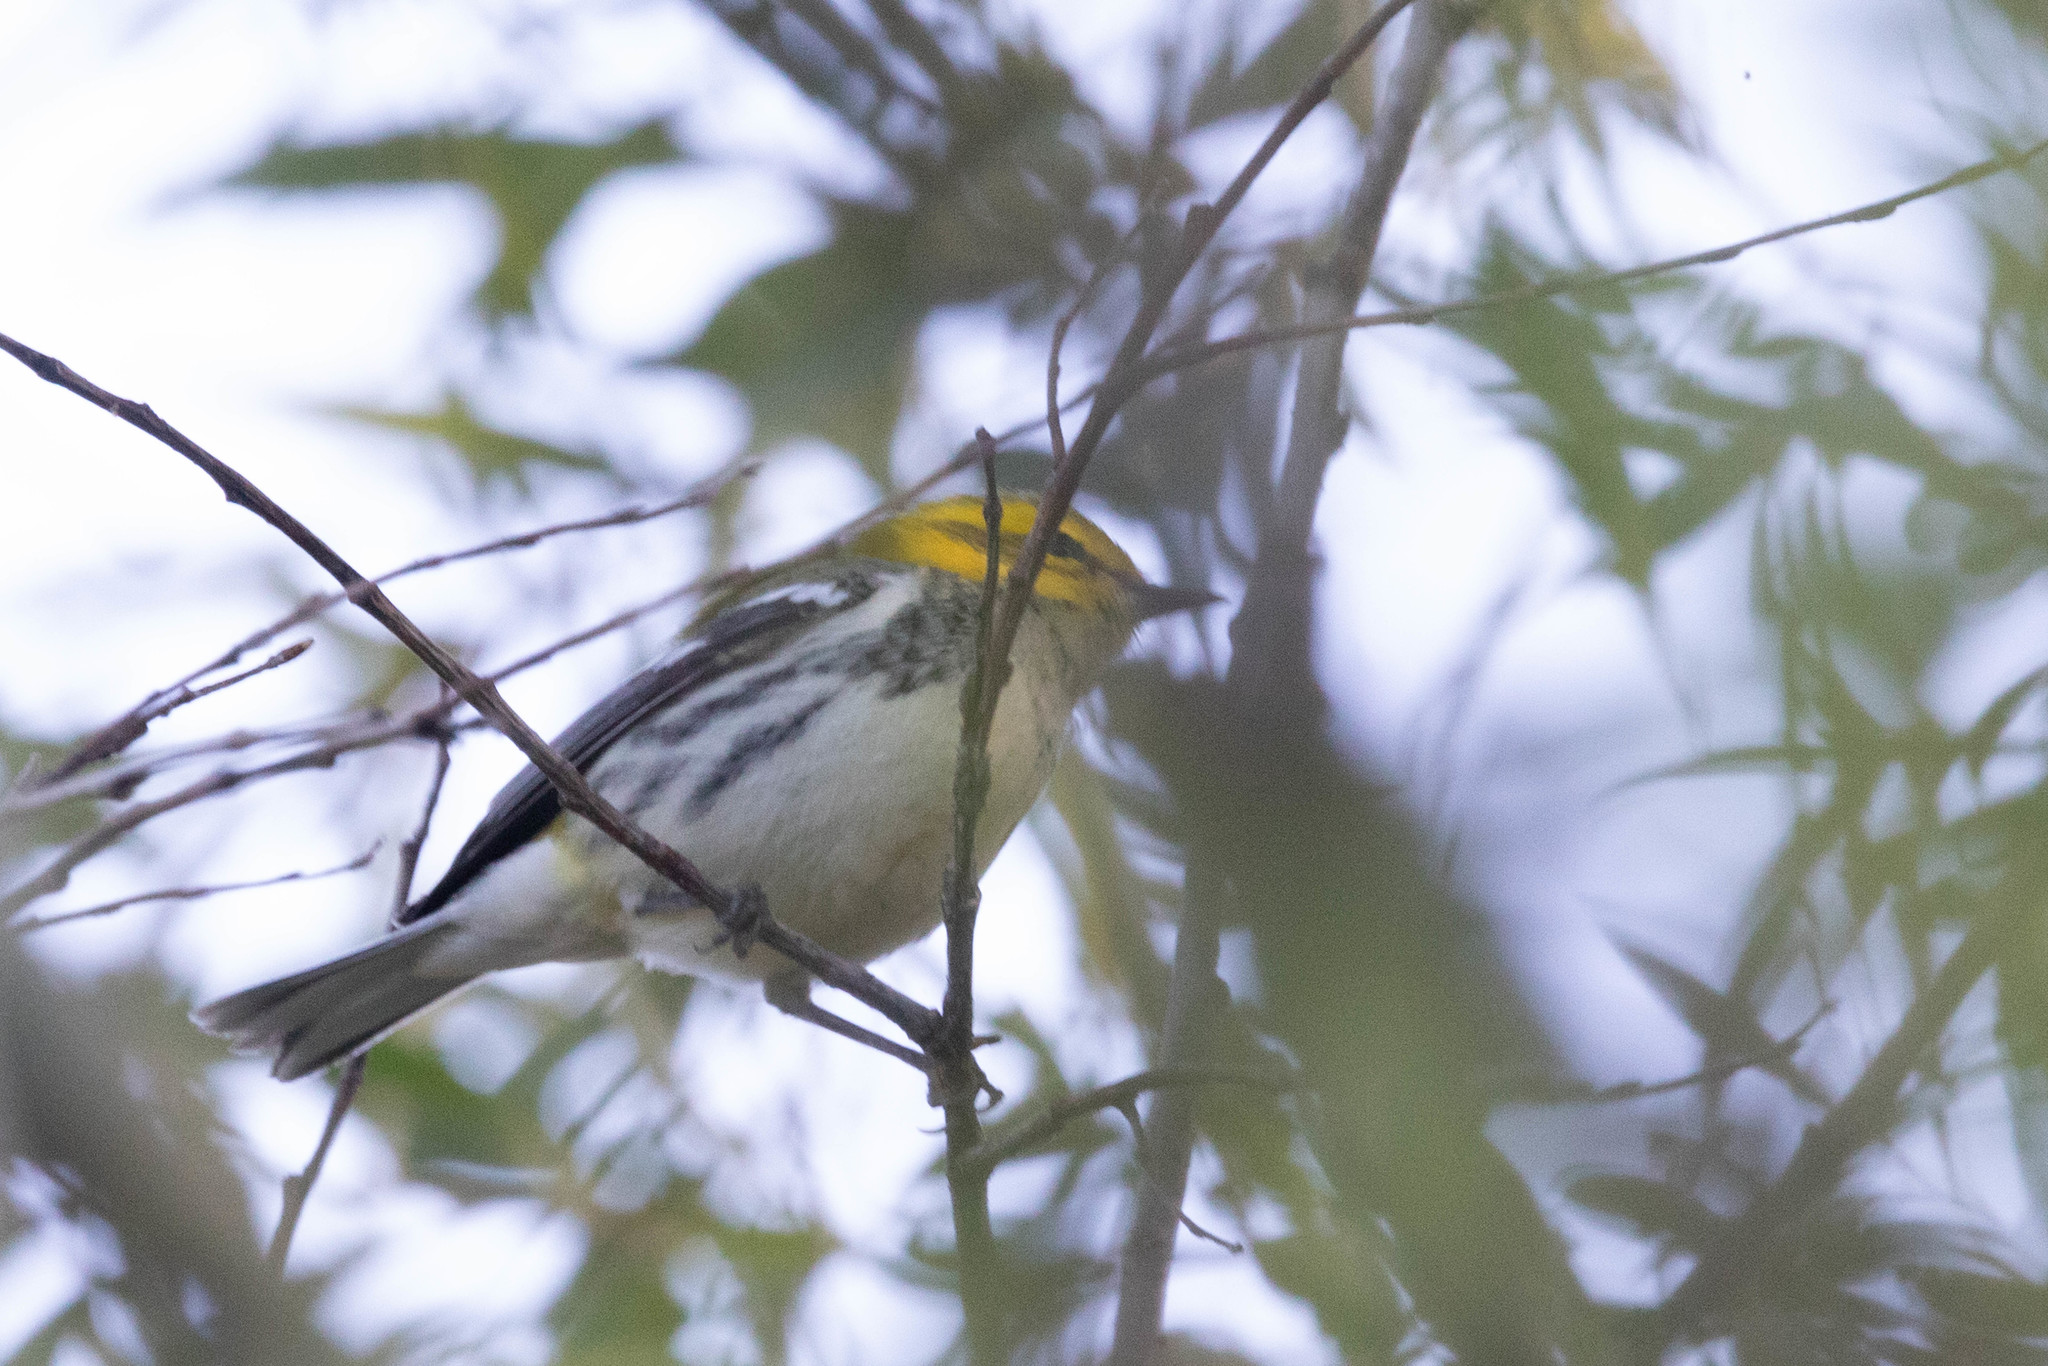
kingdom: Animalia
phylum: Chordata
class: Aves
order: Passeriformes
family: Parulidae
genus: Setophaga
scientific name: Setophaga virens
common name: Black-throated green warbler
